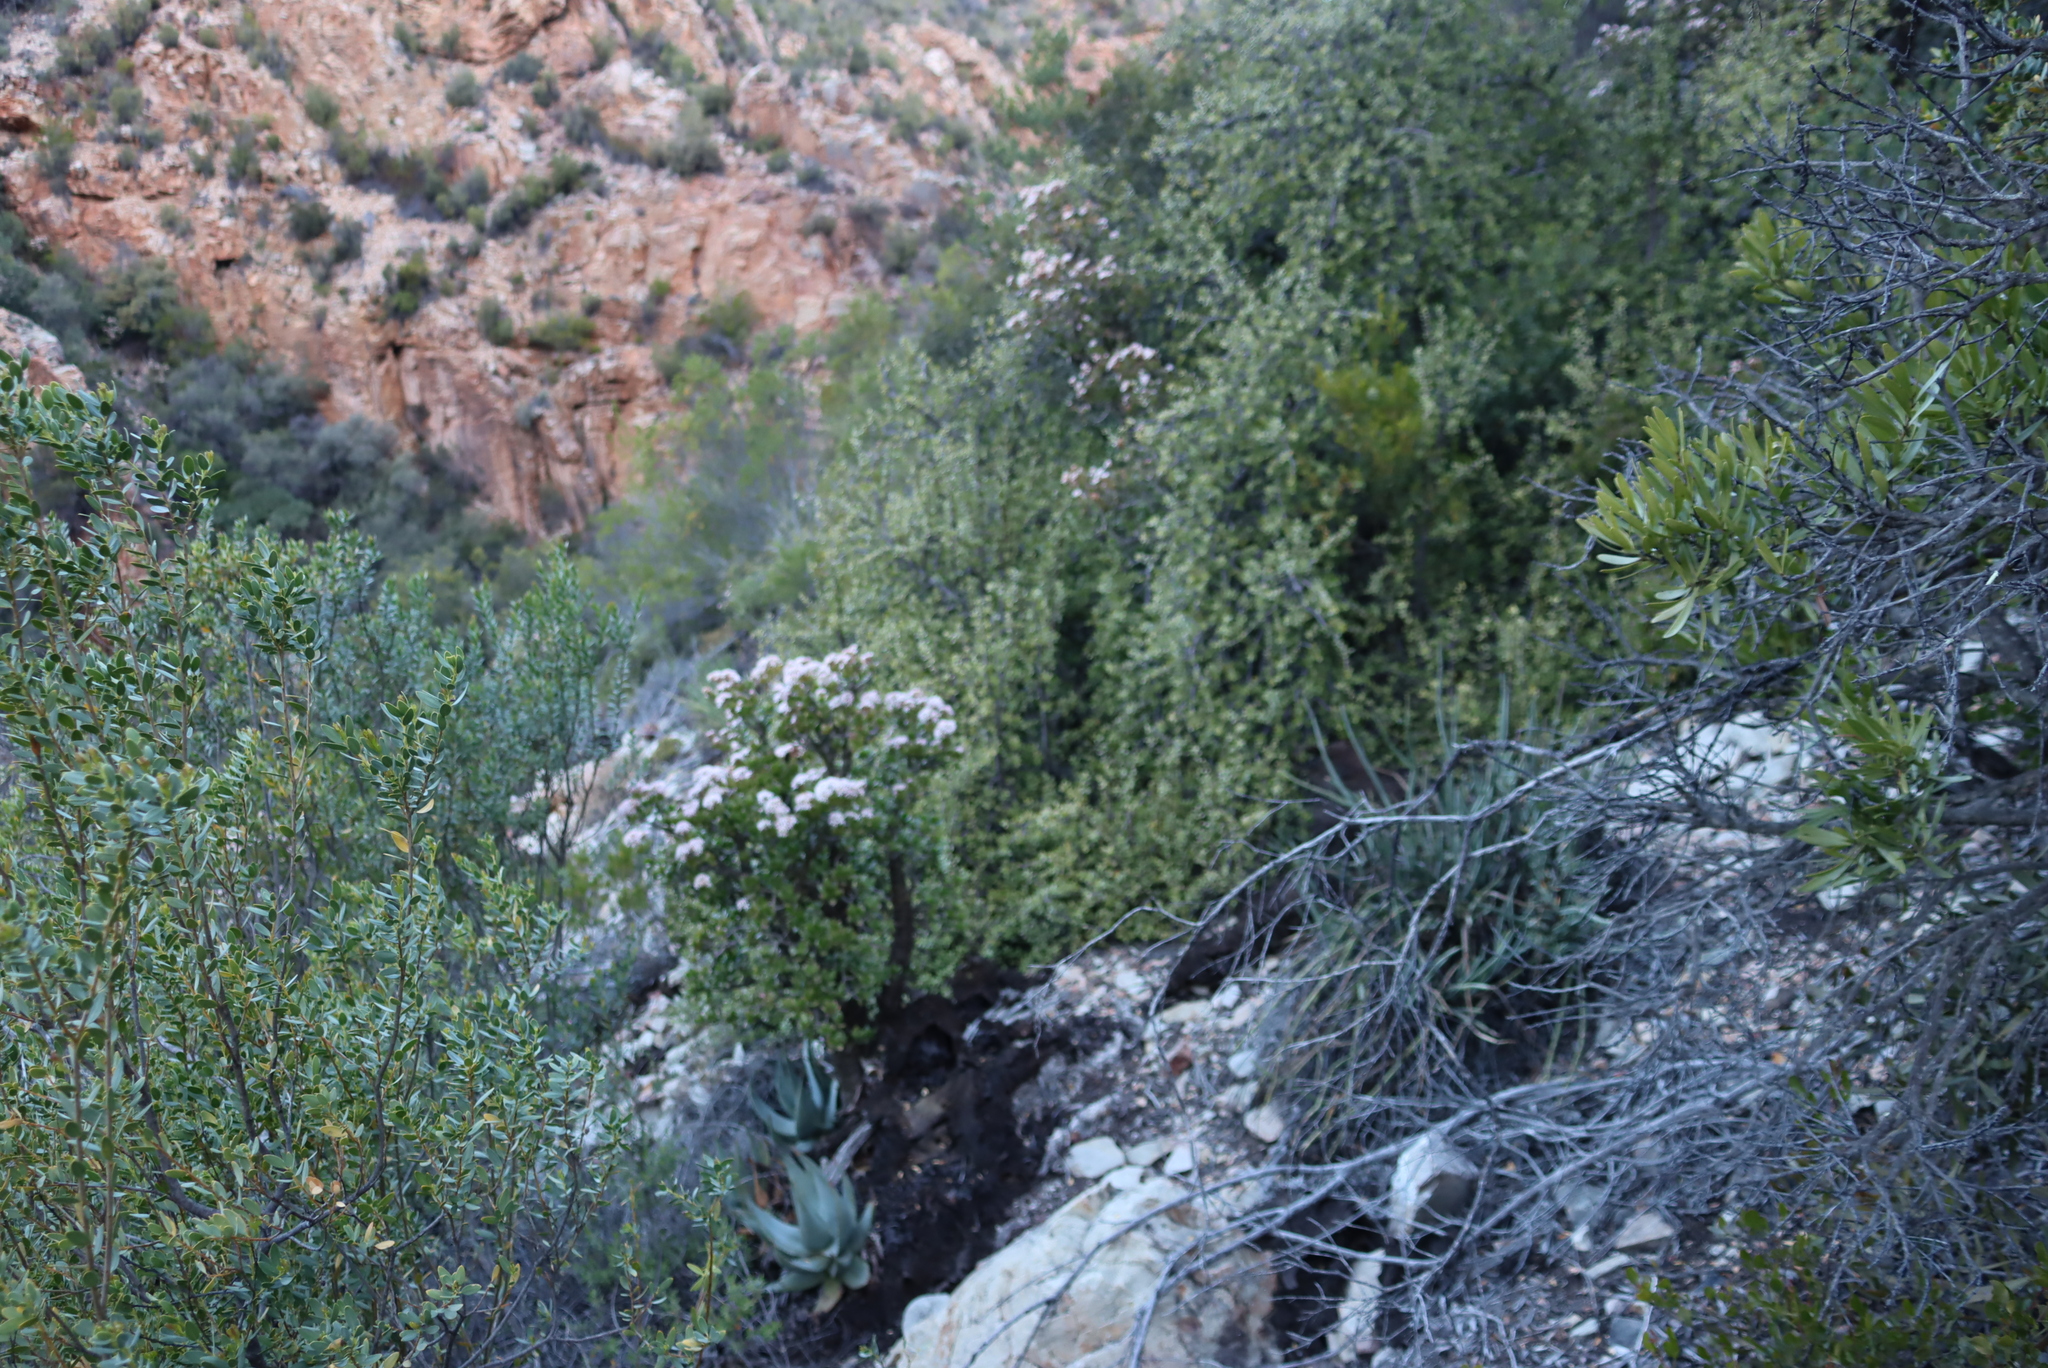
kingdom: Plantae
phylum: Tracheophyta
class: Magnoliopsida
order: Saxifragales
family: Crassulaceae
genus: Crassula
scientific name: Crassula arborescens
